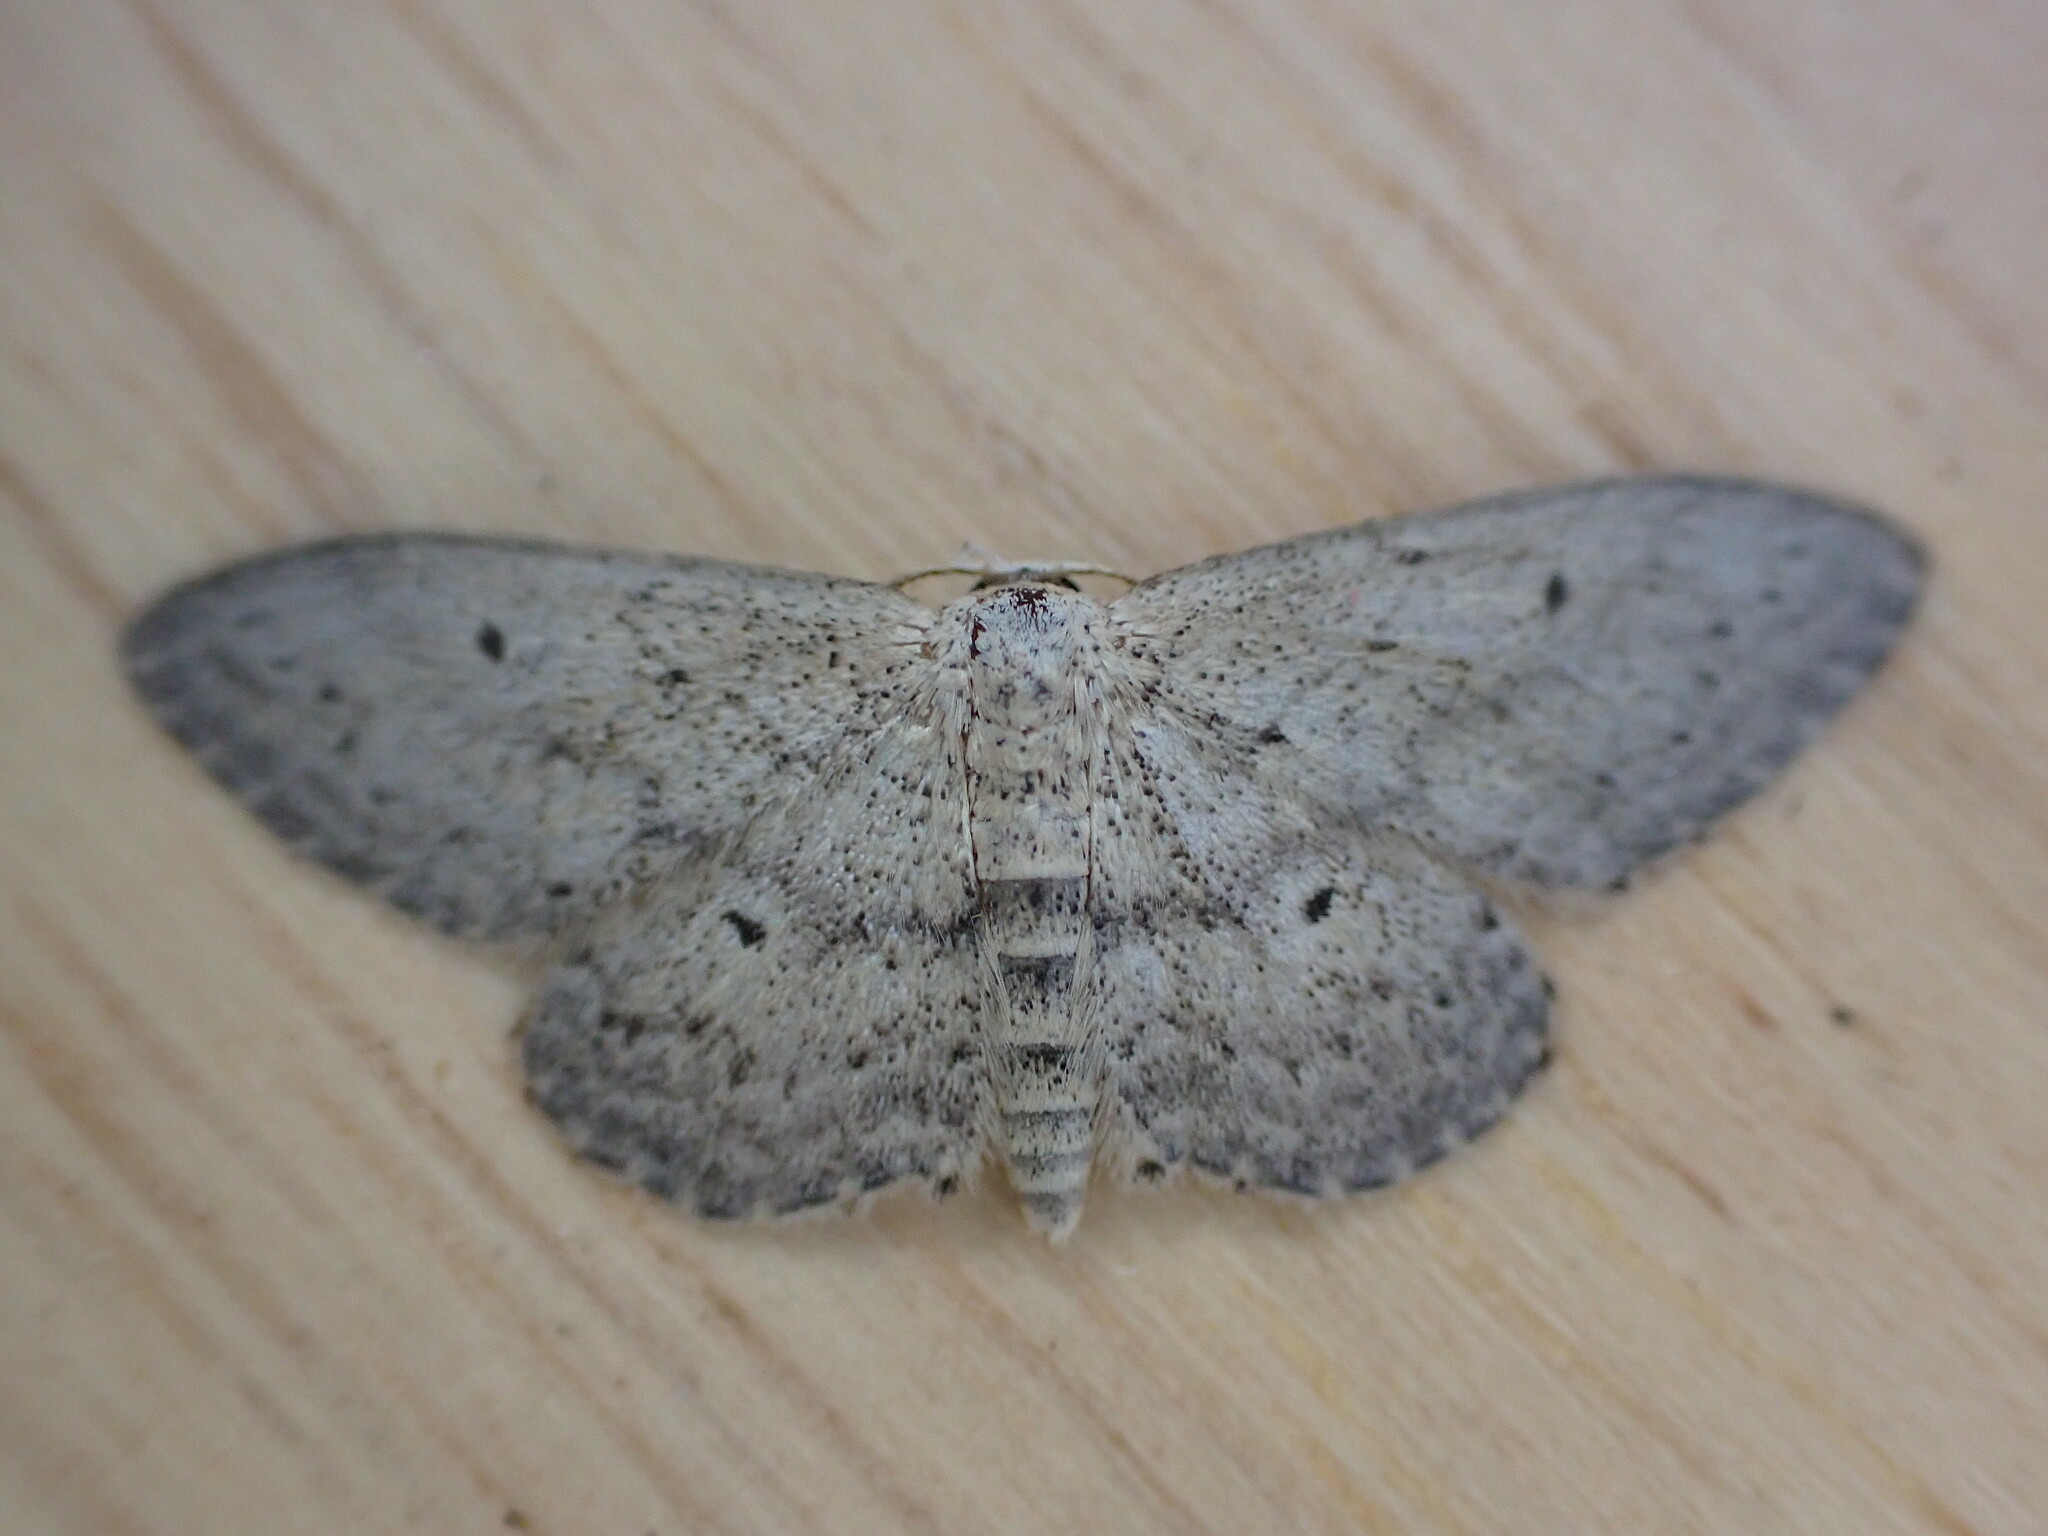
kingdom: Animalia
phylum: Arthropoda
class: Insecta
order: Lepidoptera
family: Geometridae
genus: Idaea
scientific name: Idaea seriata
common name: Small dusty wave
